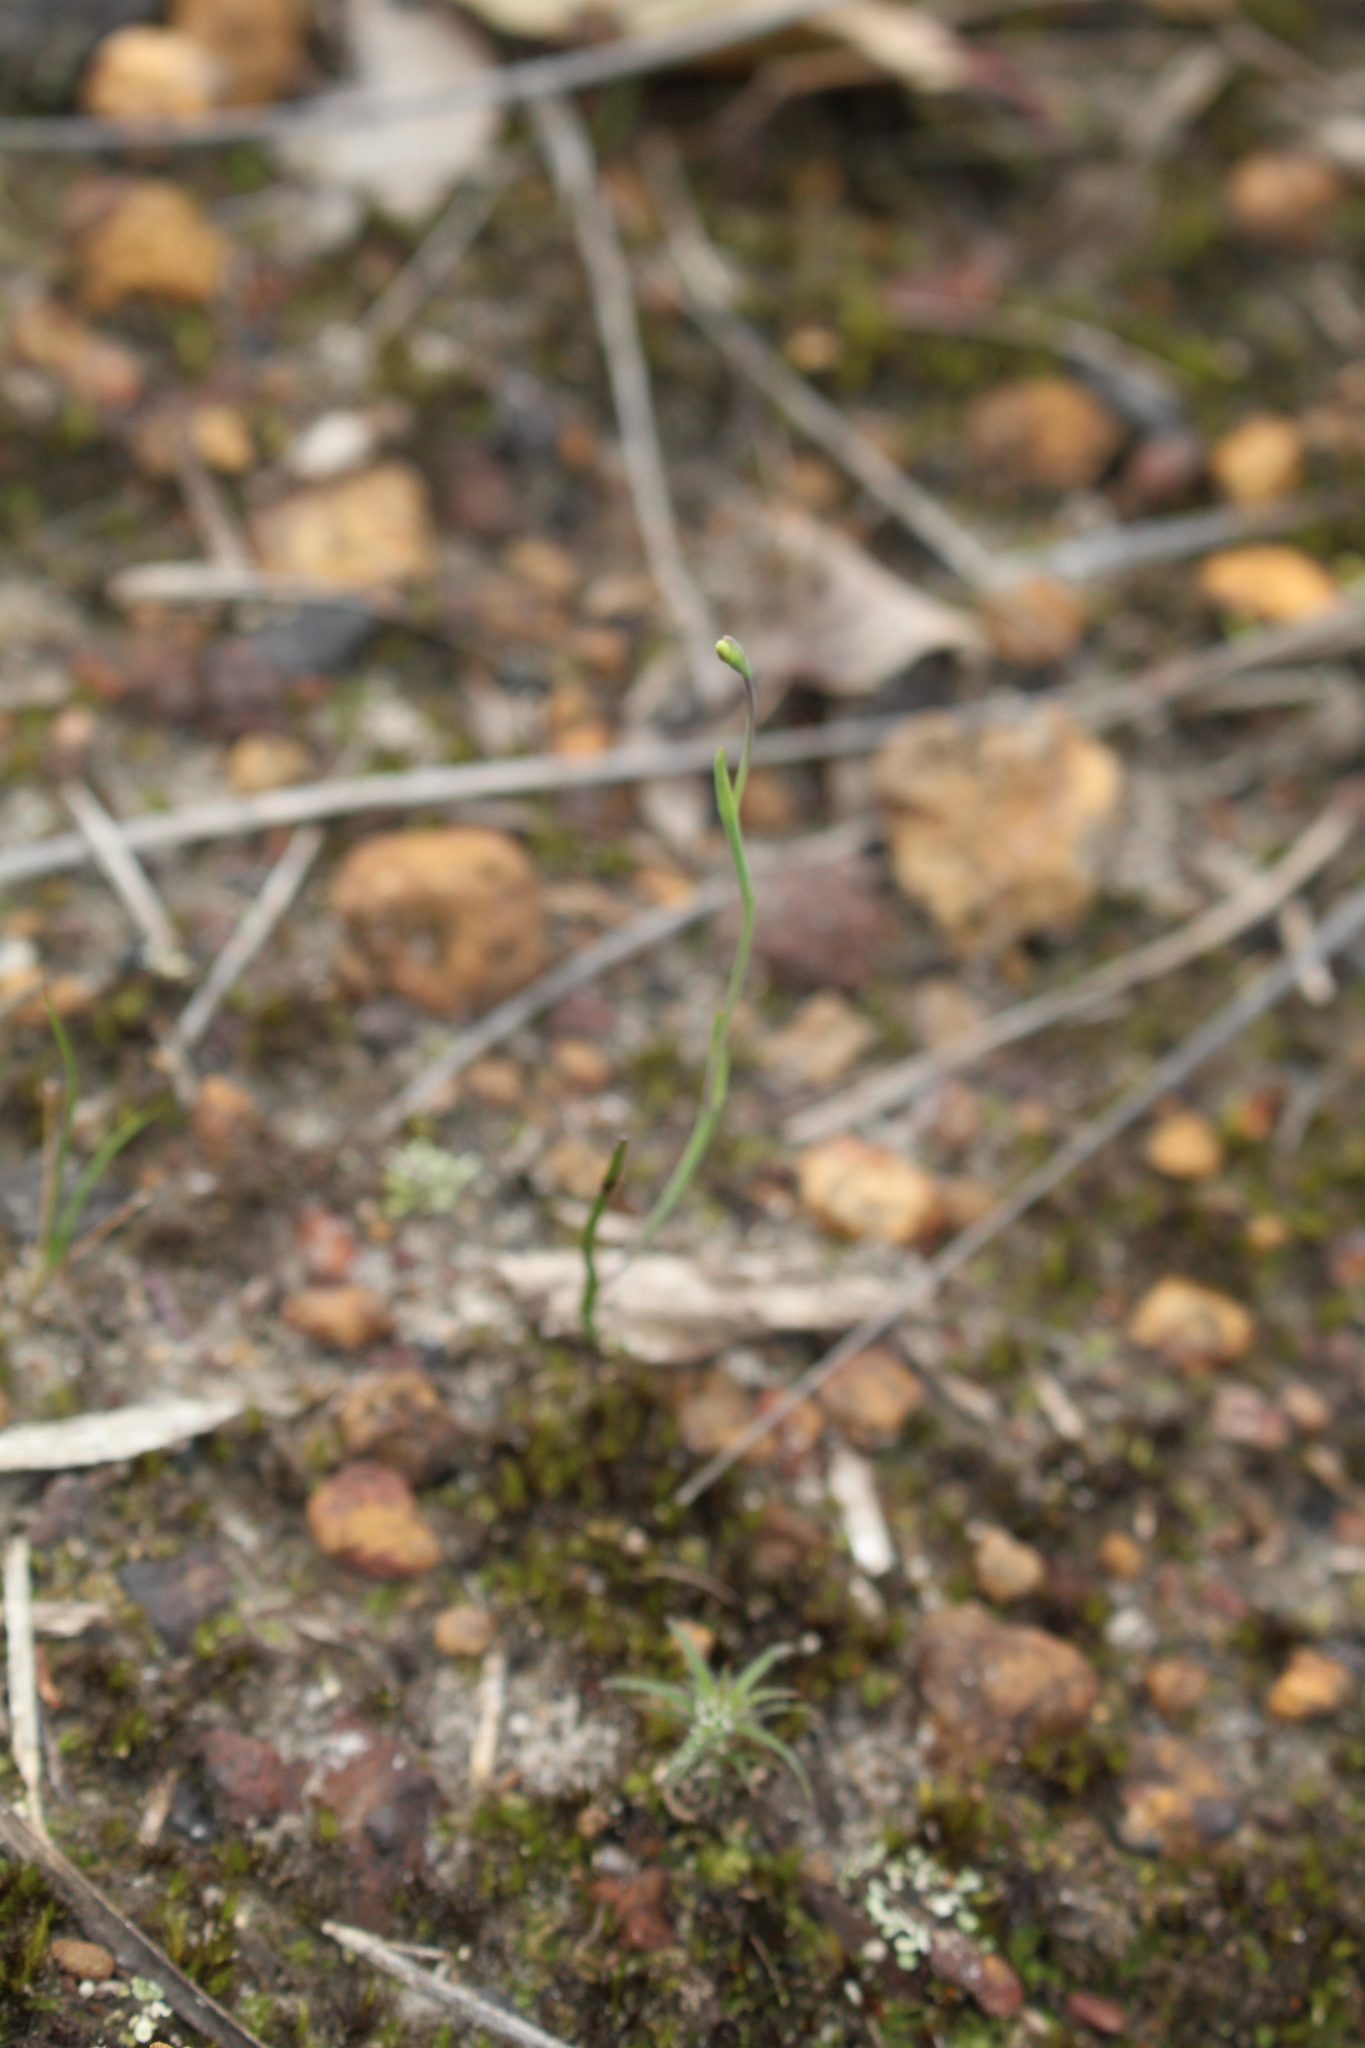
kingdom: Plantae
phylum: Tracheophyta
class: Liliopsida
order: Asparagales
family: Orchidaceae
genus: Thelymitra
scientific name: Thelymitra flexuosa
